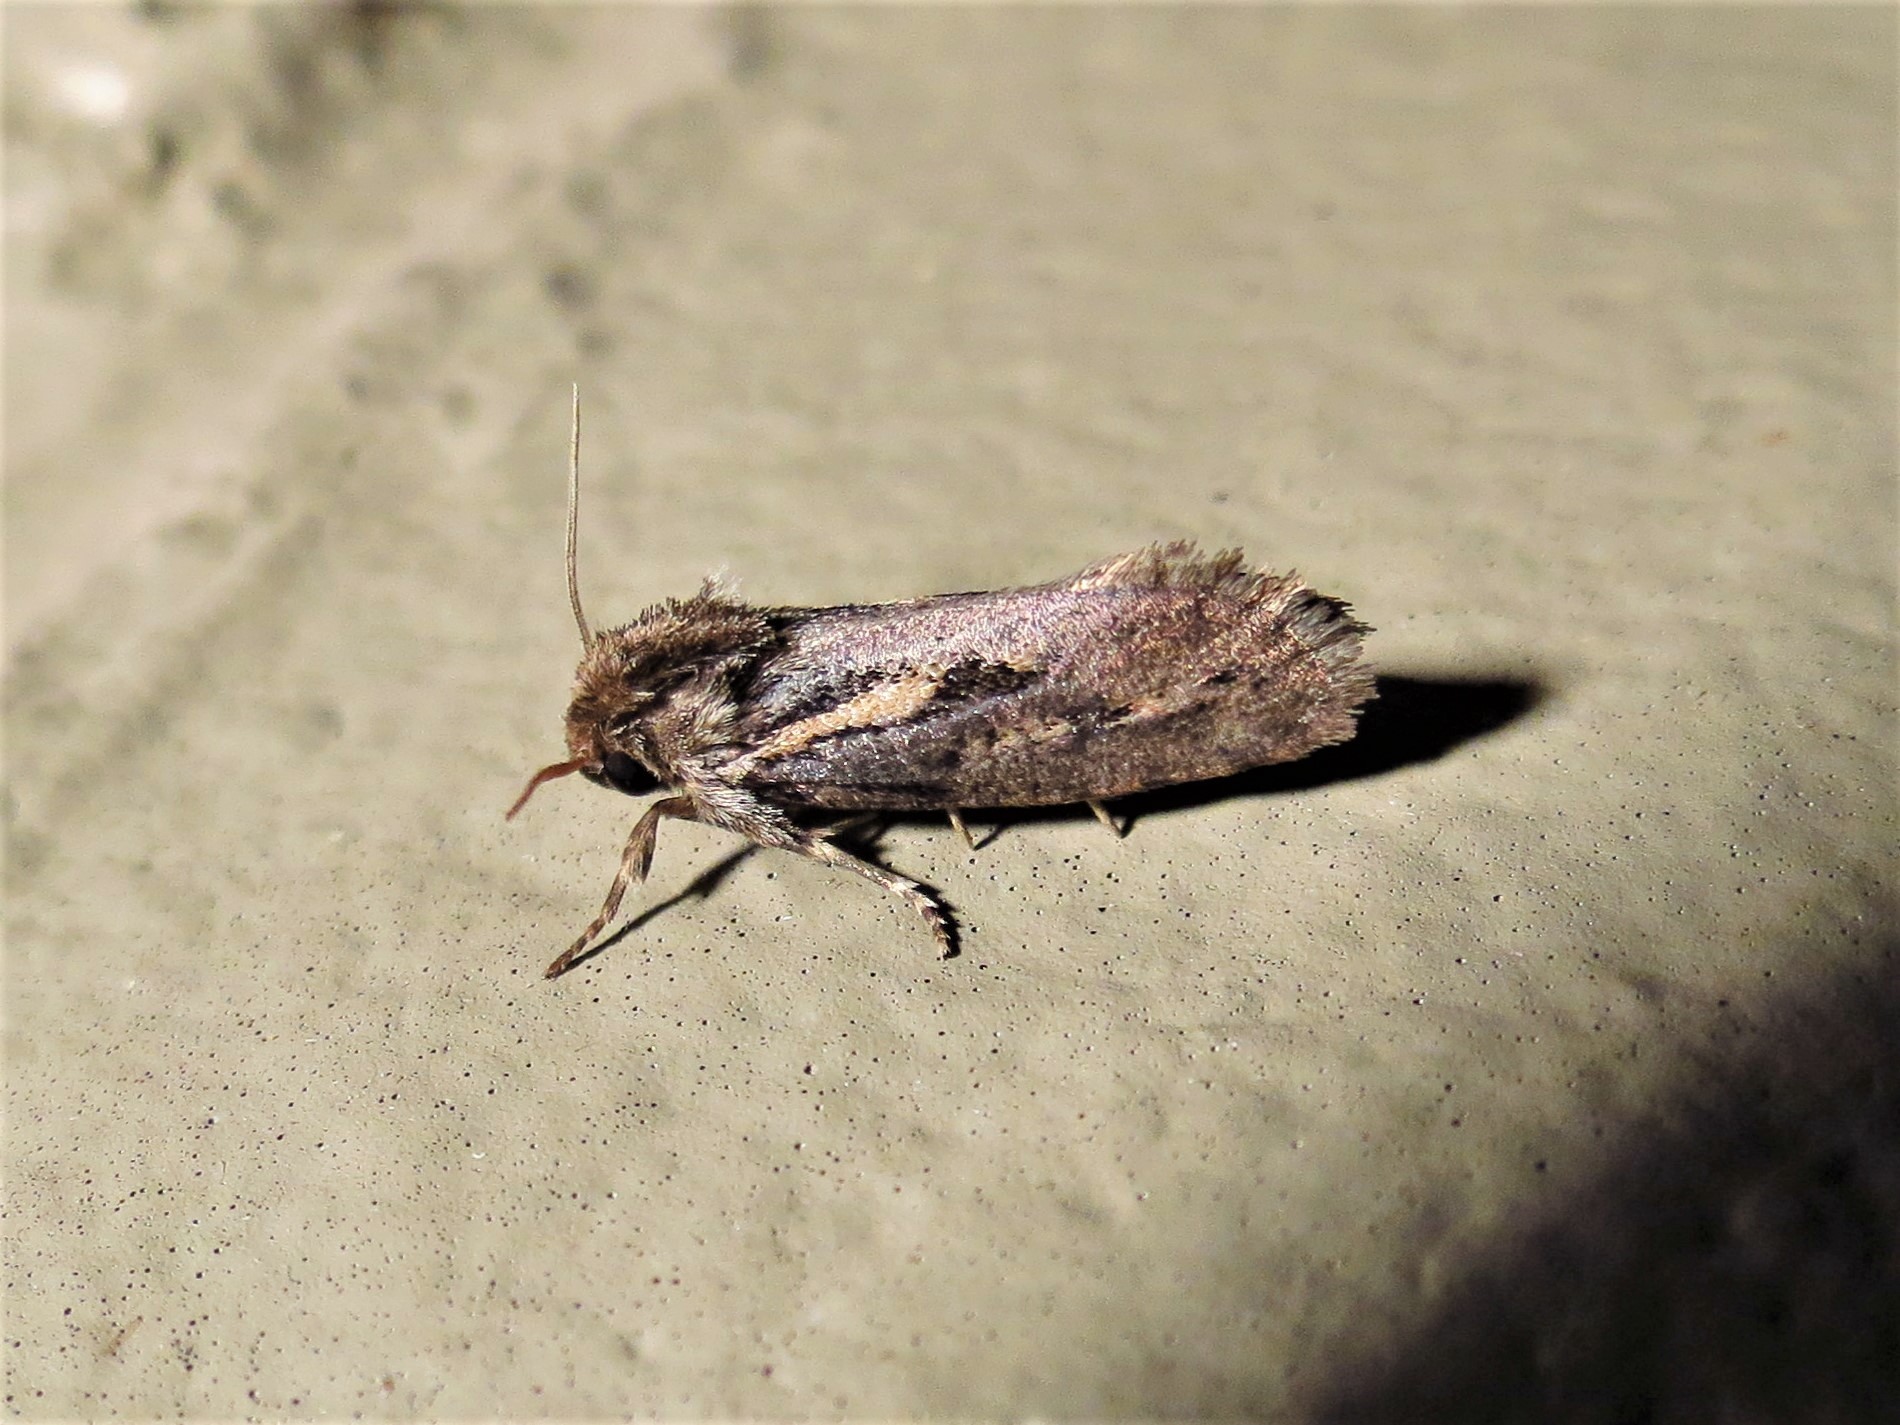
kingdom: Animalia
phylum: Arthropoda
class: Insecta
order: Lepidoptera
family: Tineidae
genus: Acrolophus
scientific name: Acrolophus popeanella
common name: Clemens' grass tubeworm moth
